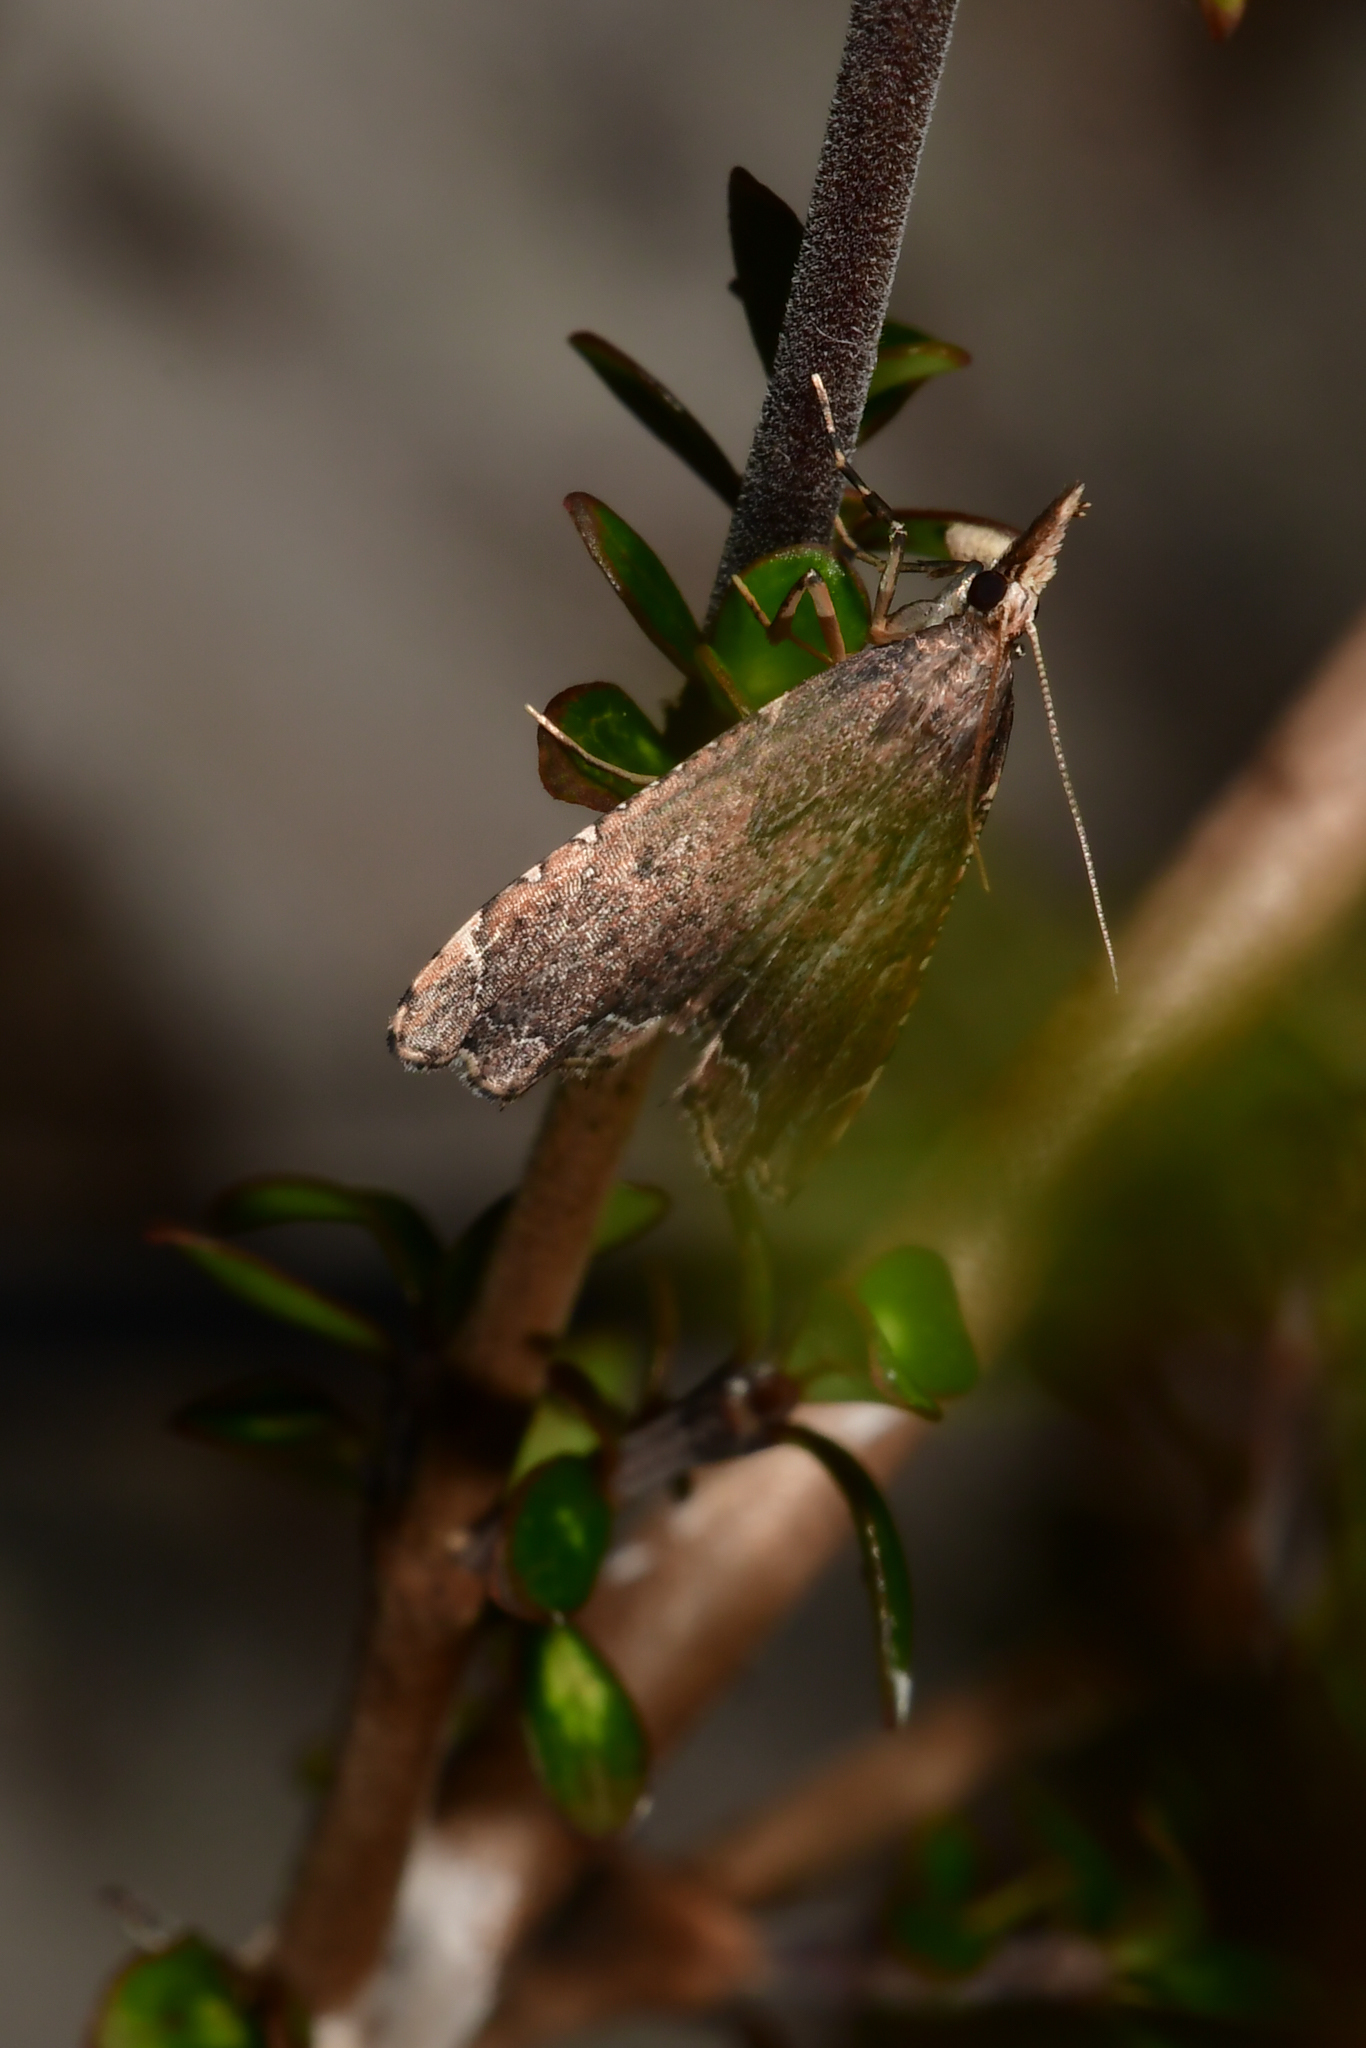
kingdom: Animalia
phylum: Arthropoda
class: Insecta
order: Lepidoptera
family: Crambidae
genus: Diplopseustis
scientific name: Diplopseustis perieresalis
